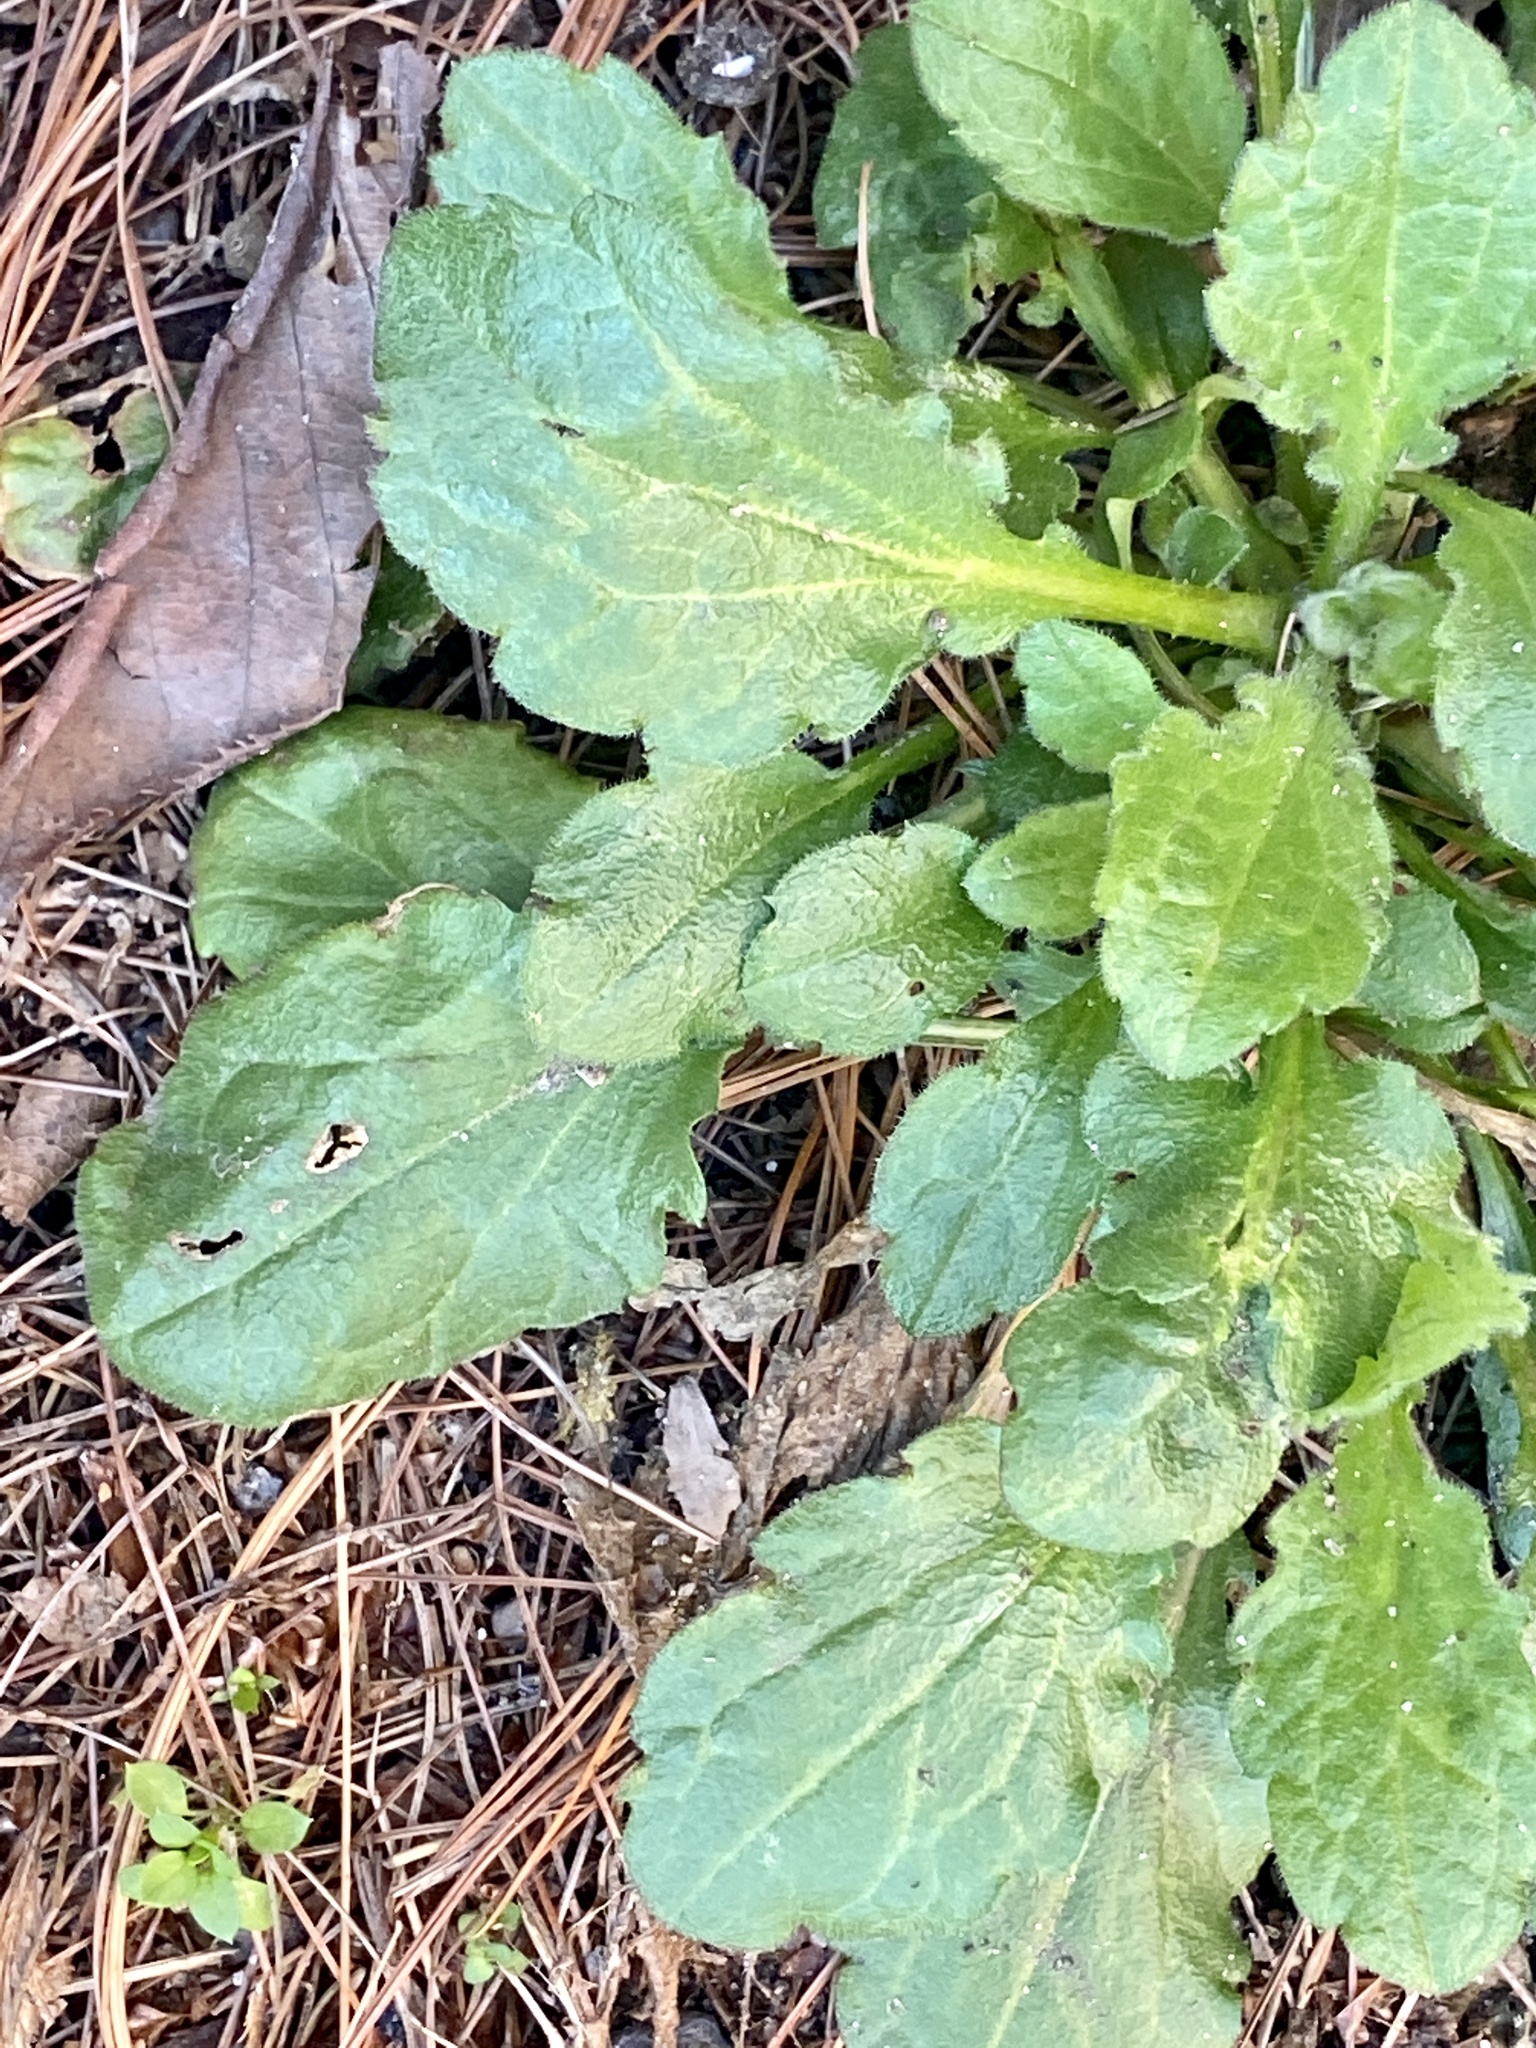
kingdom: Plantae
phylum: Tracheophyta
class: Magnoliopsida
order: Asterales
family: Asteraceae
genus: Erigeron
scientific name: Erigeron canadensis
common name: Canadian fleabane
